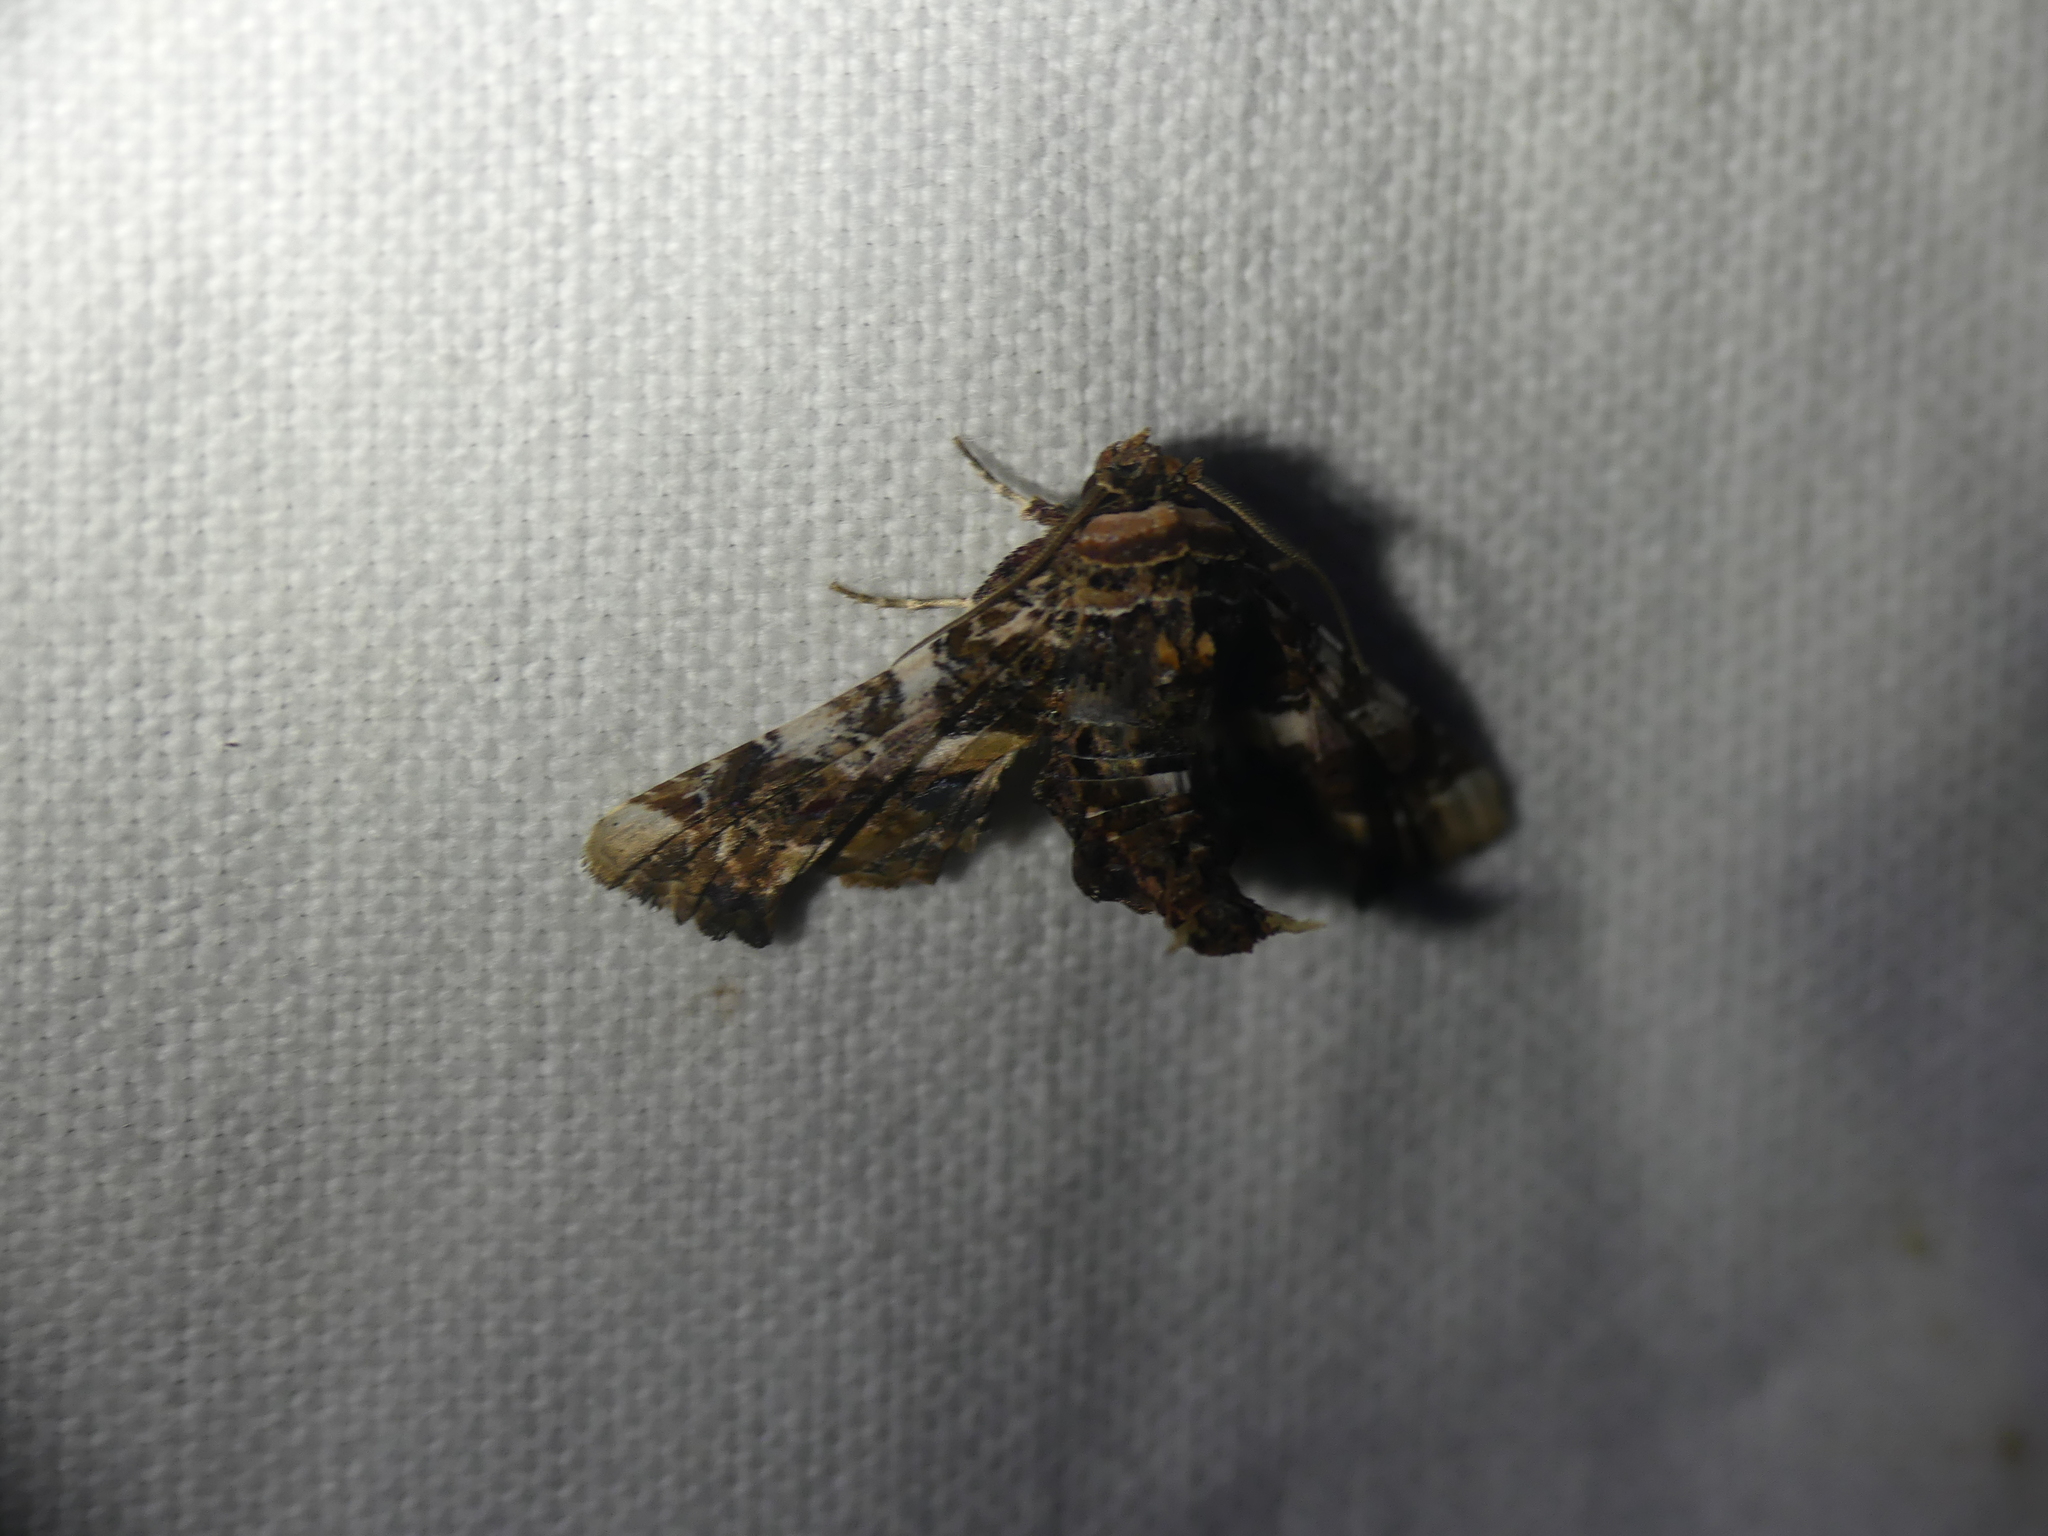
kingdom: Animalia
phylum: Arthropoda
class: Insecta
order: Lepidoptera
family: Euteliidae
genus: Eutelia
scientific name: Eutelia adulatrix
